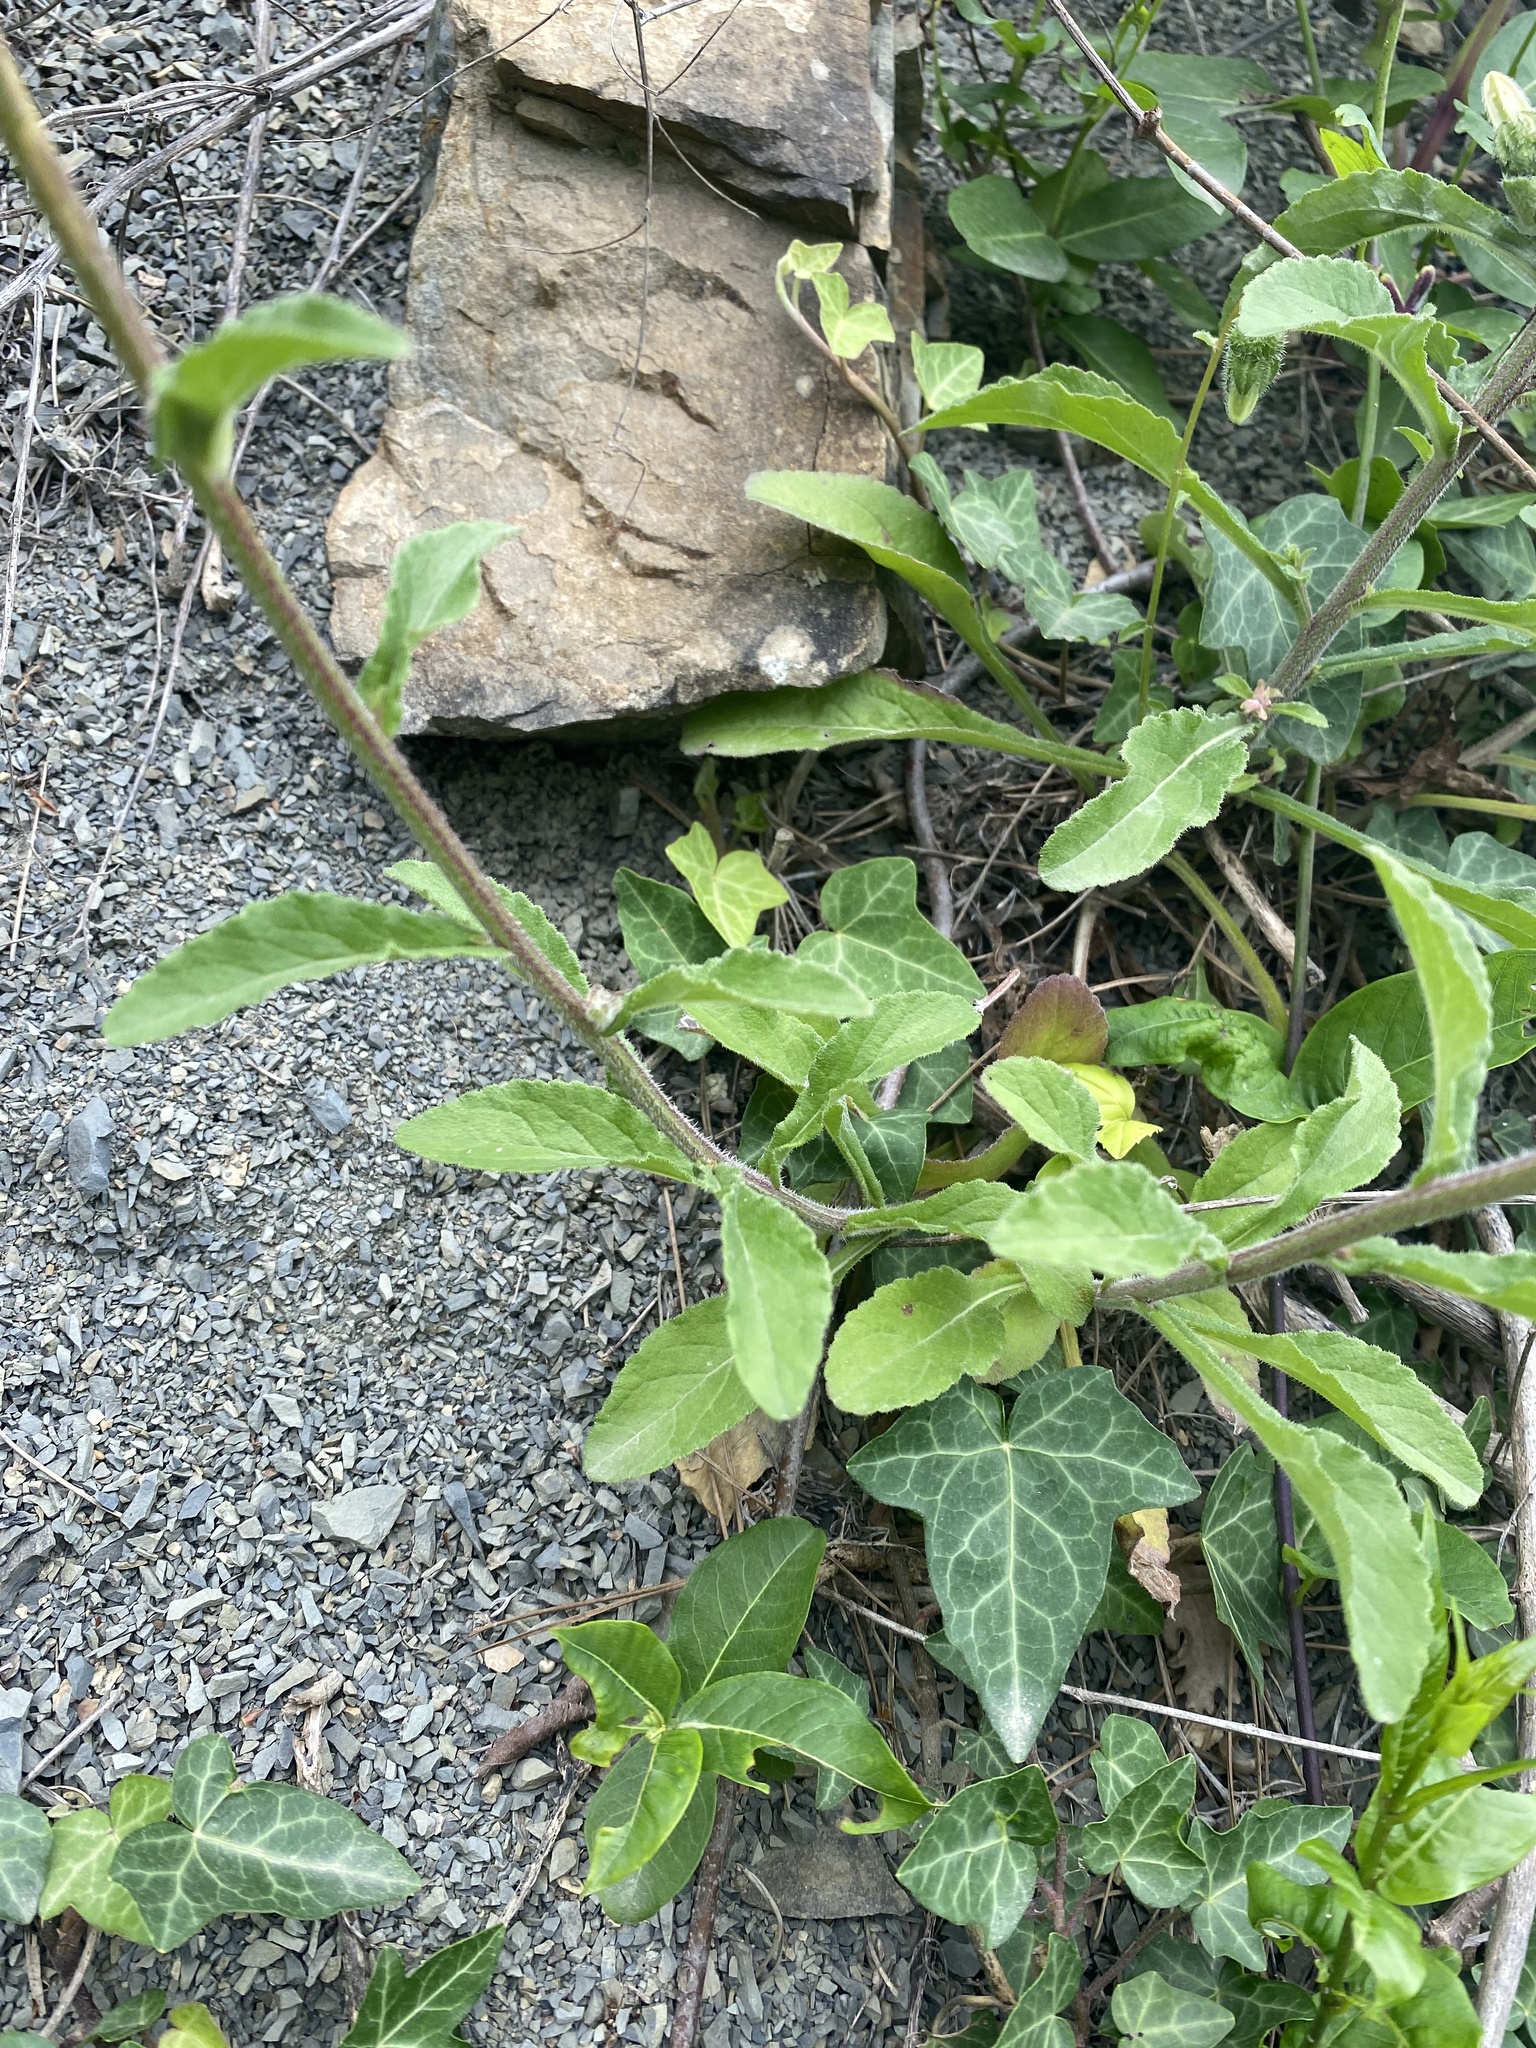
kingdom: Plantae
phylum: Tracheophyta
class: Magnoliopsida
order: Asterales
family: Campanulaceae
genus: Campanula
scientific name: Campanula komarovii
